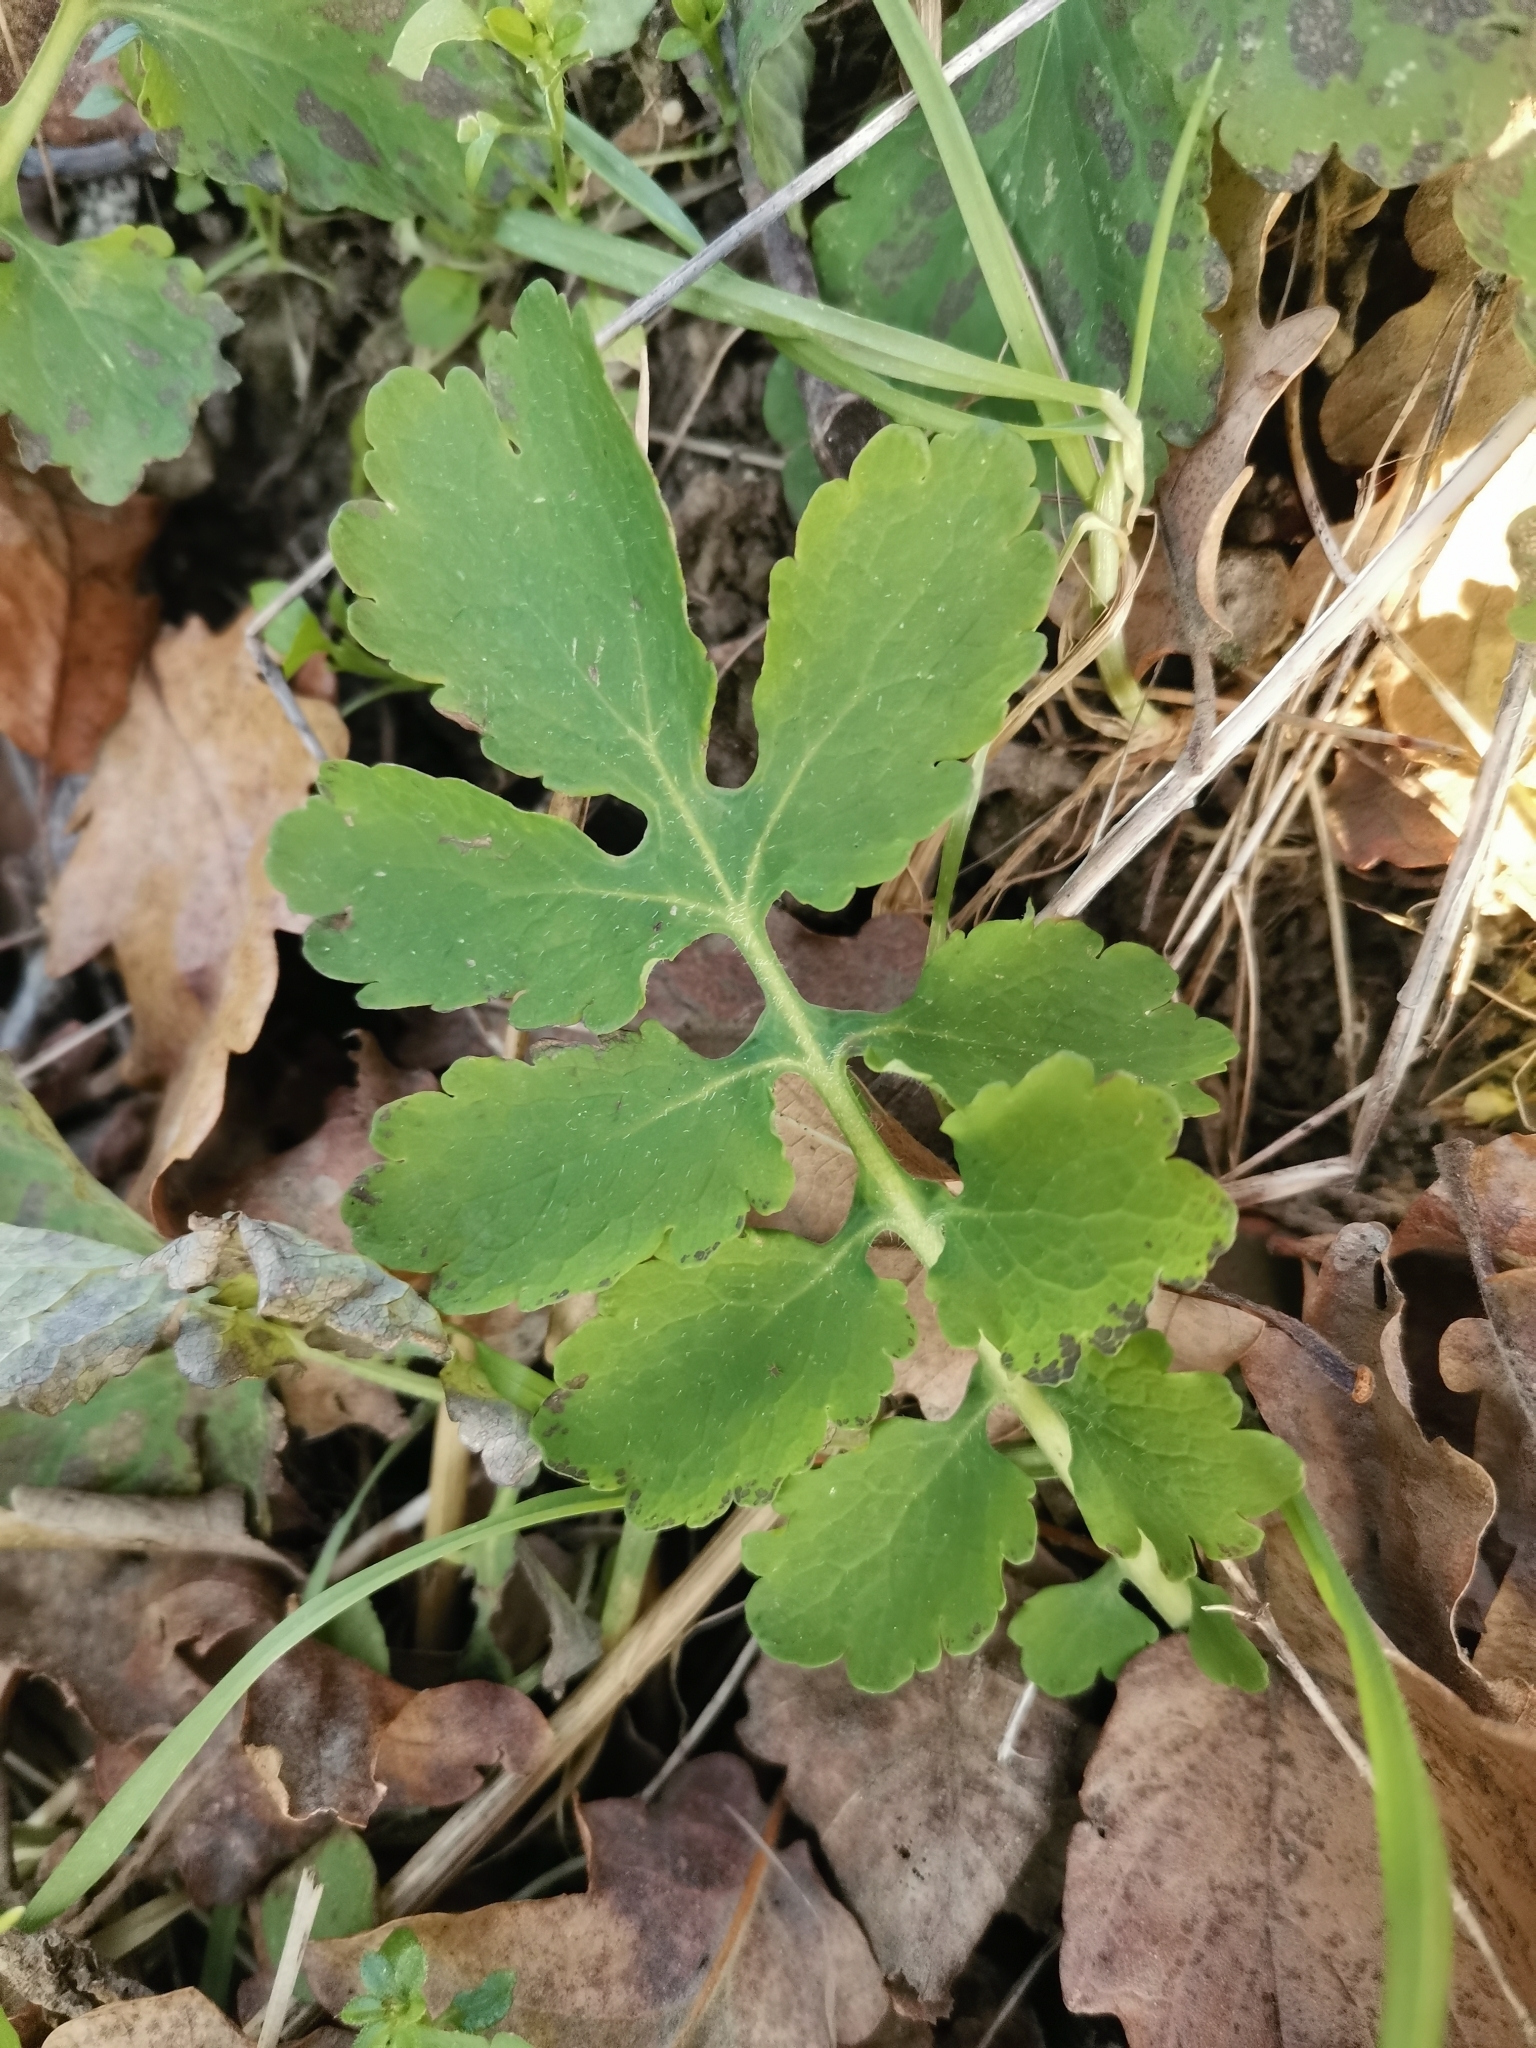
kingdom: Plantae
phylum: Tracheophyta
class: Magnoliopsida
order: Ranunculales
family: Papaveraceae
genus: Chelidonium
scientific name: Chelidonium majus
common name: Greater celandine
